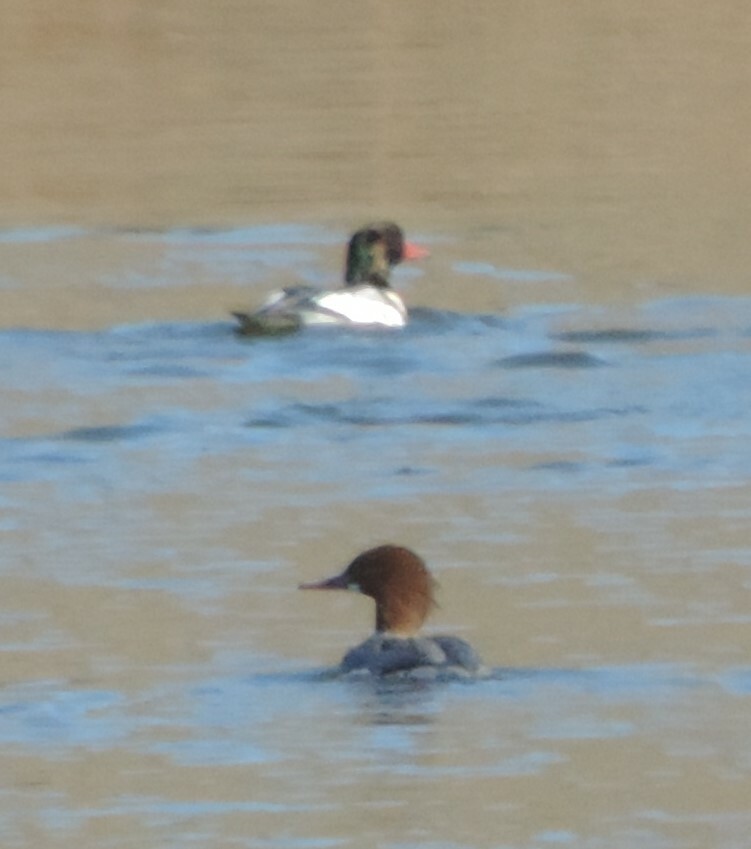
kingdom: Animalia
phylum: Chordata
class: Aves
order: Anseriformes
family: Anatidae
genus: Mergus
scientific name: Mergus merganser
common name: Common merganser
